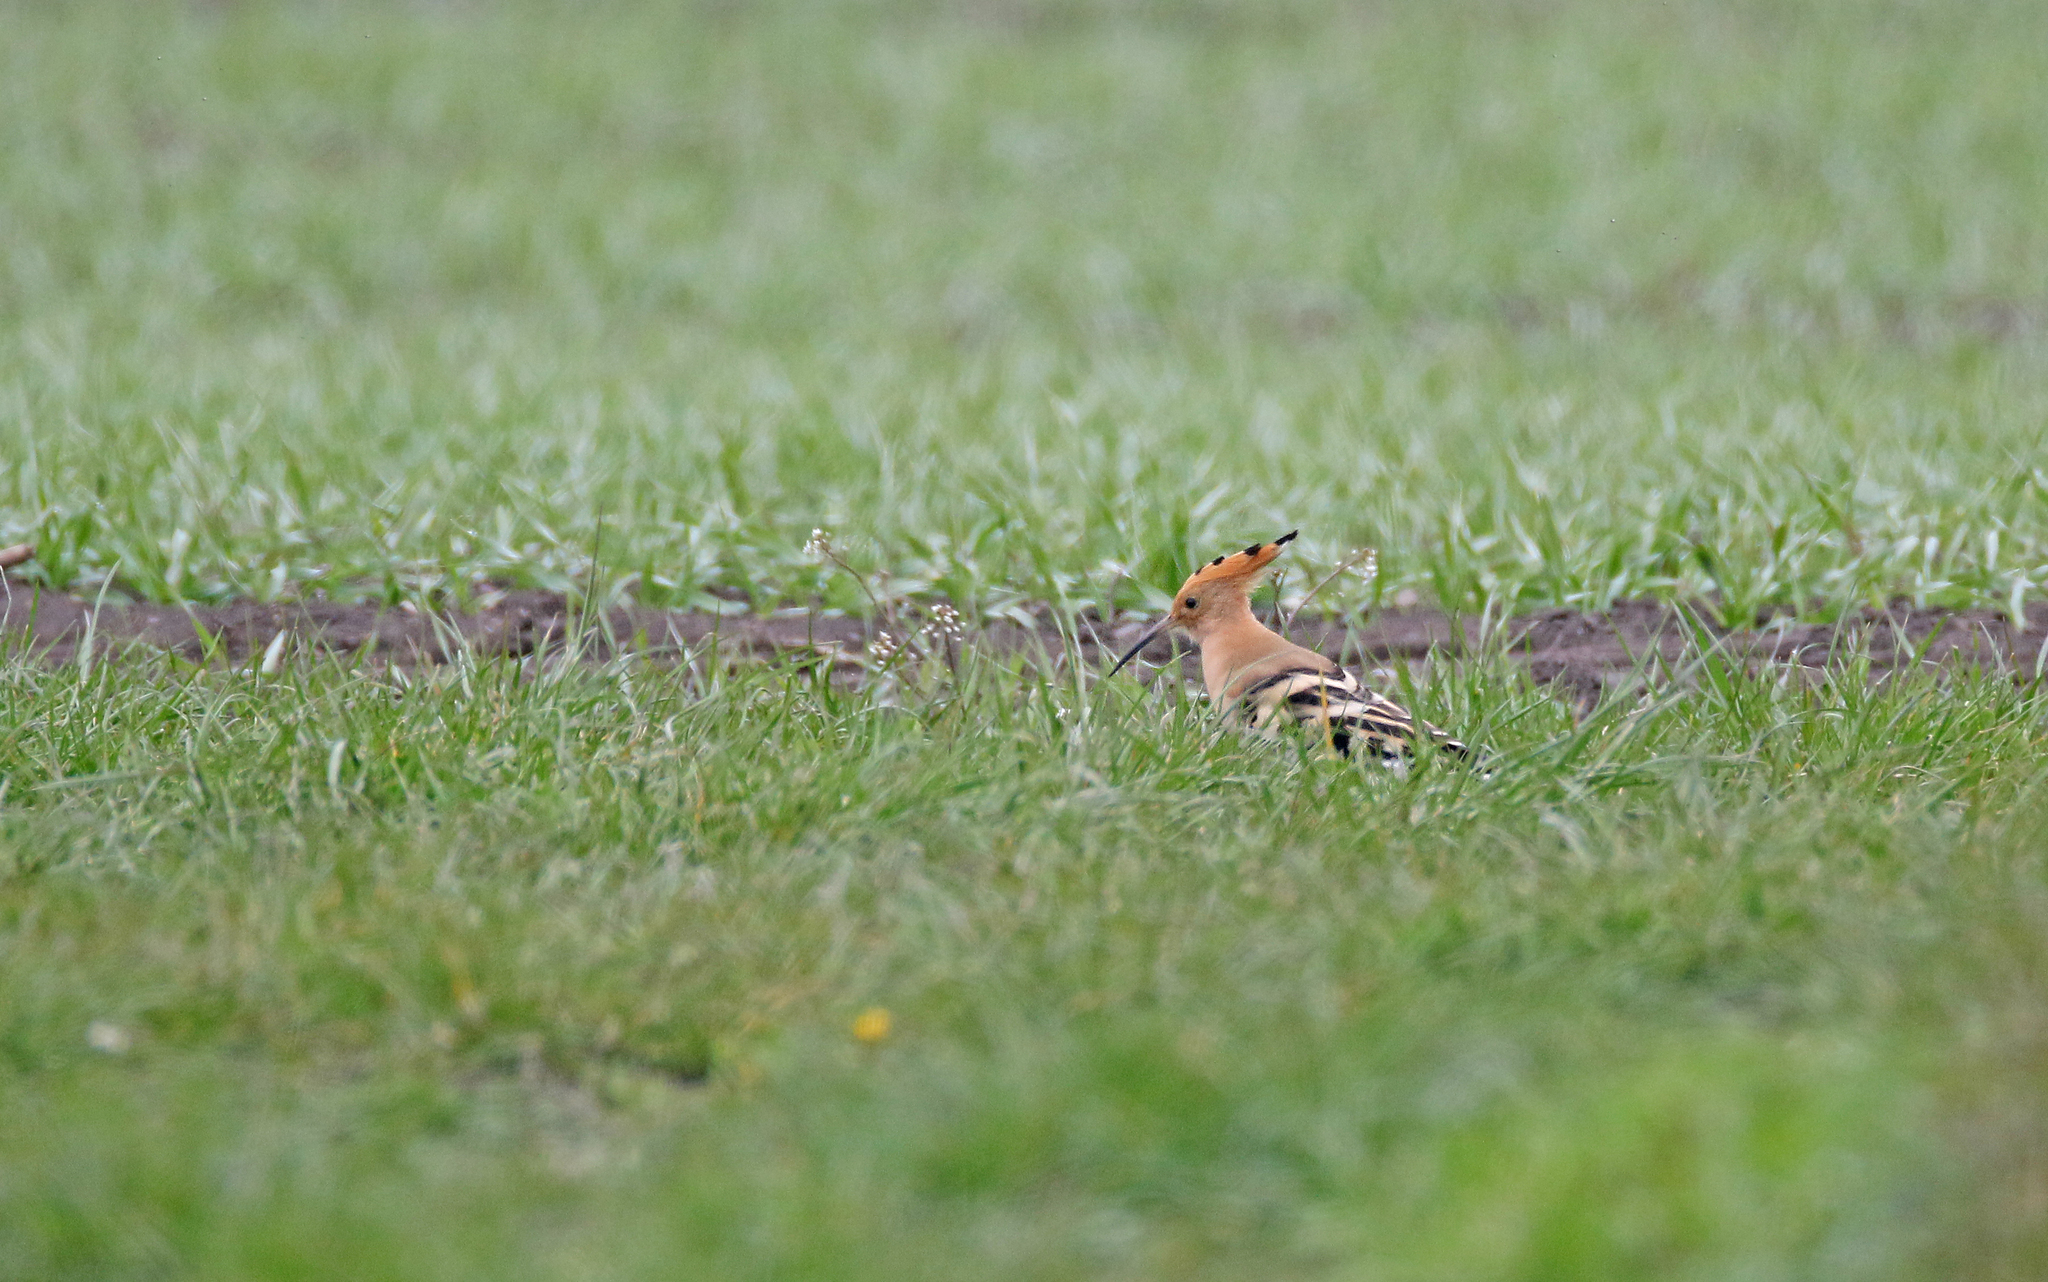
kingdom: Animalia
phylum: Chordata
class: Aves
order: Bucerotiformes
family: Upupidae
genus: Upupa
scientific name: Upupa epops
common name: Eurasian hoopoe
